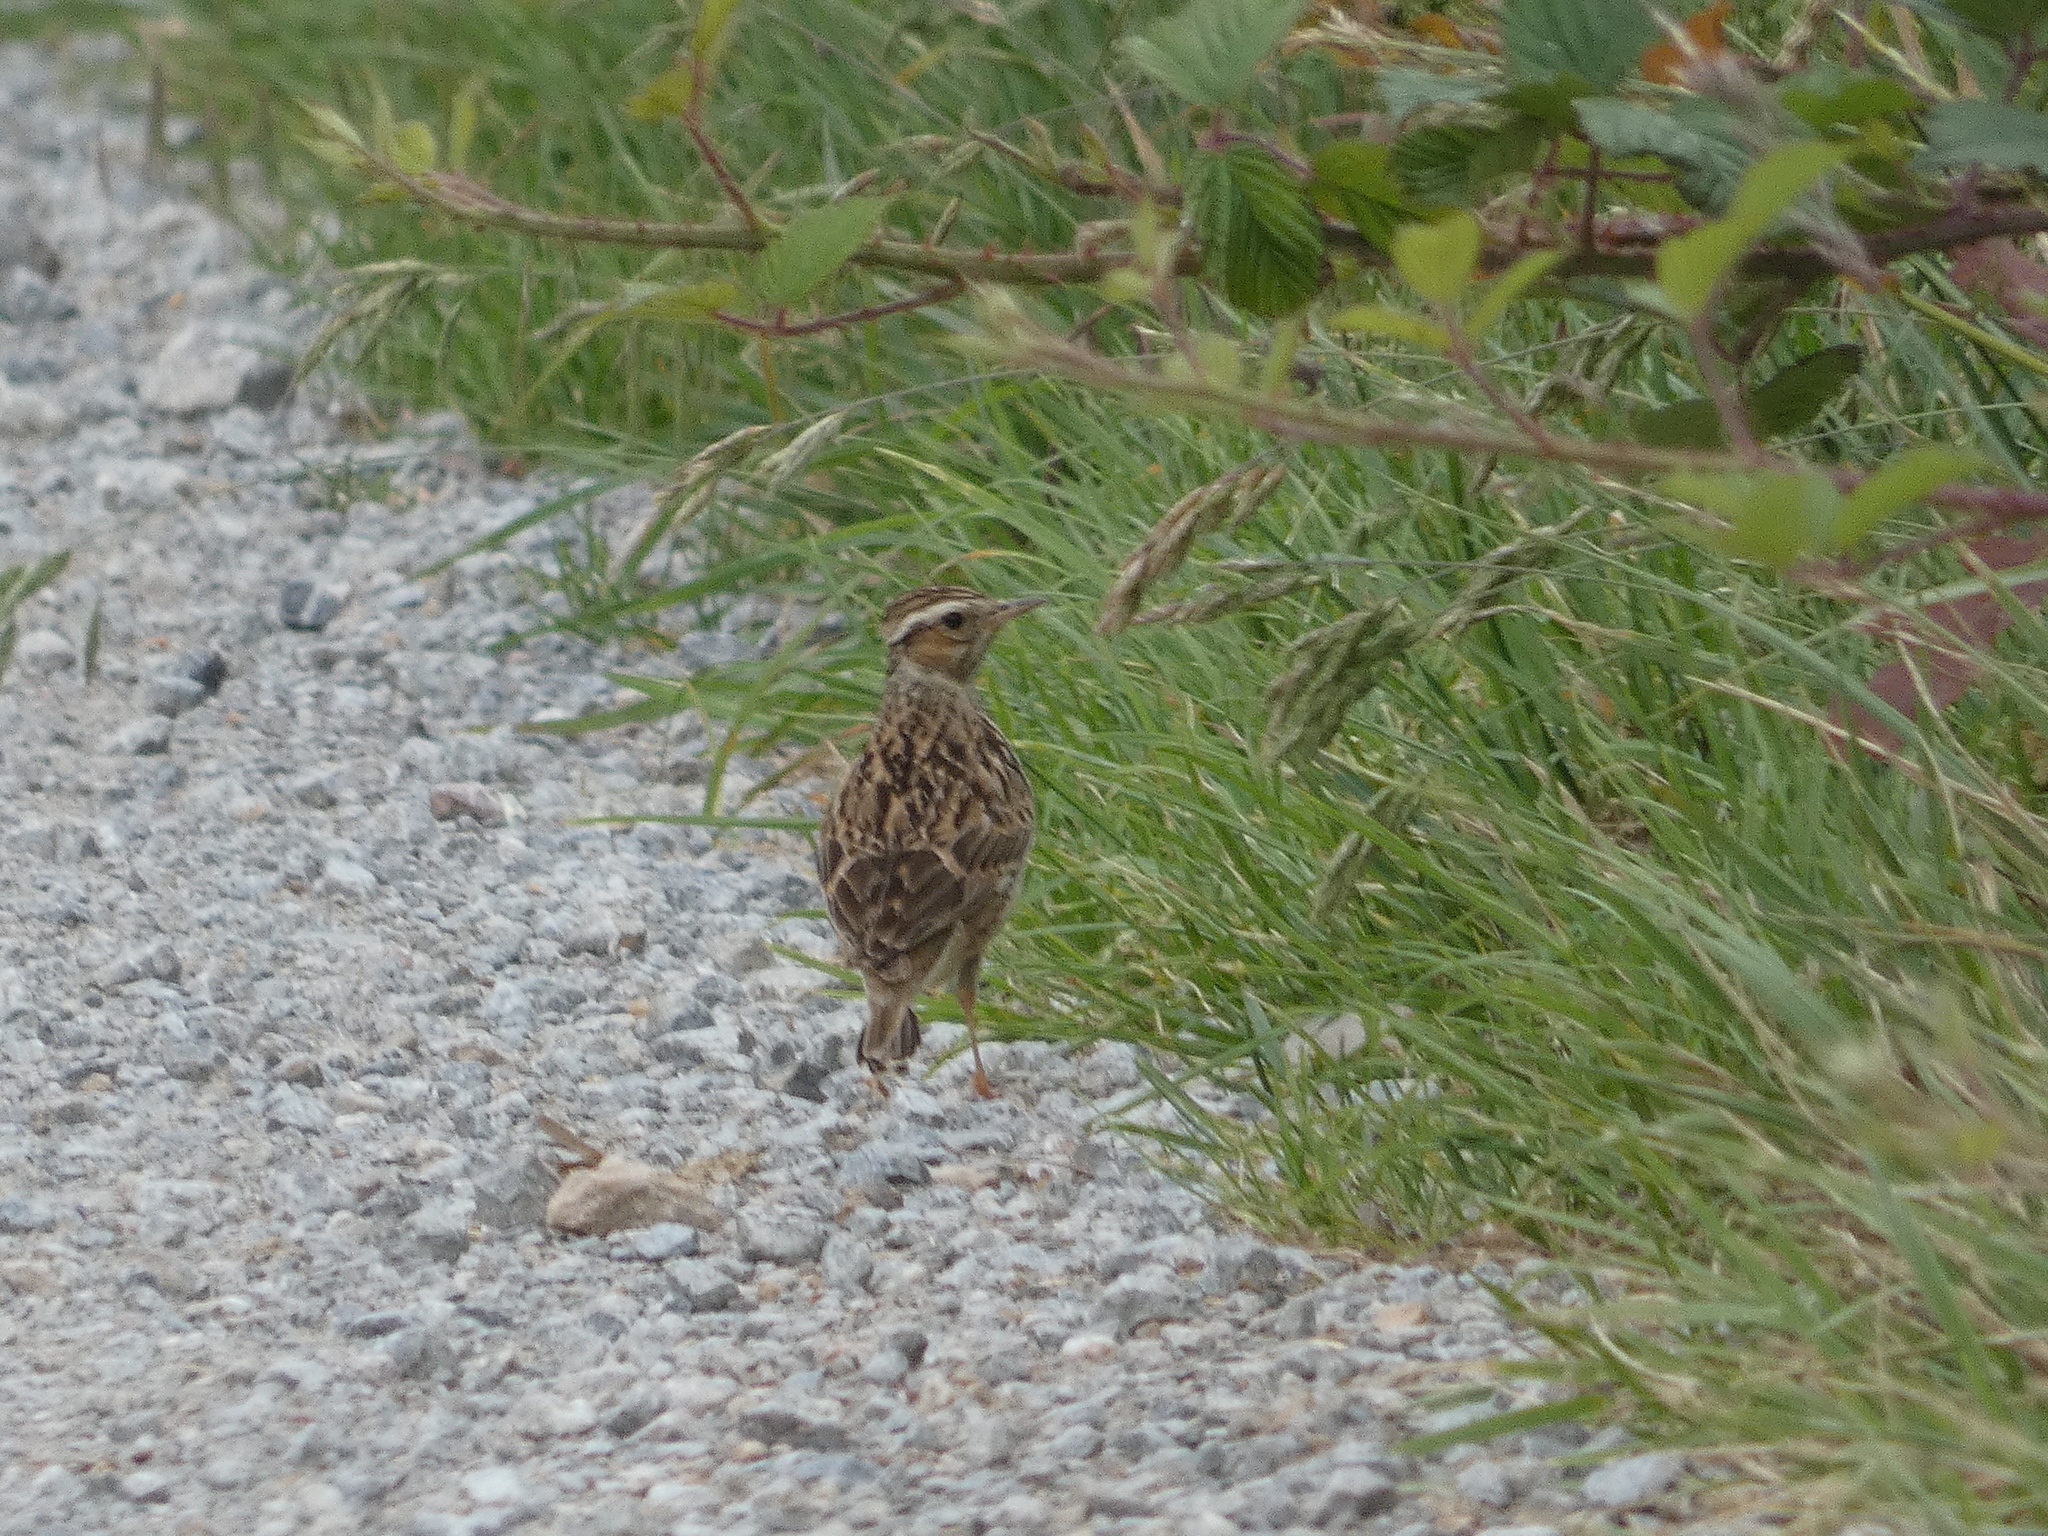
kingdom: Animalia
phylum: Chordata
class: Aves
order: Passeriformes
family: Alaudidae
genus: Lullula
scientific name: Lullula arborea
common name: Woodlark
